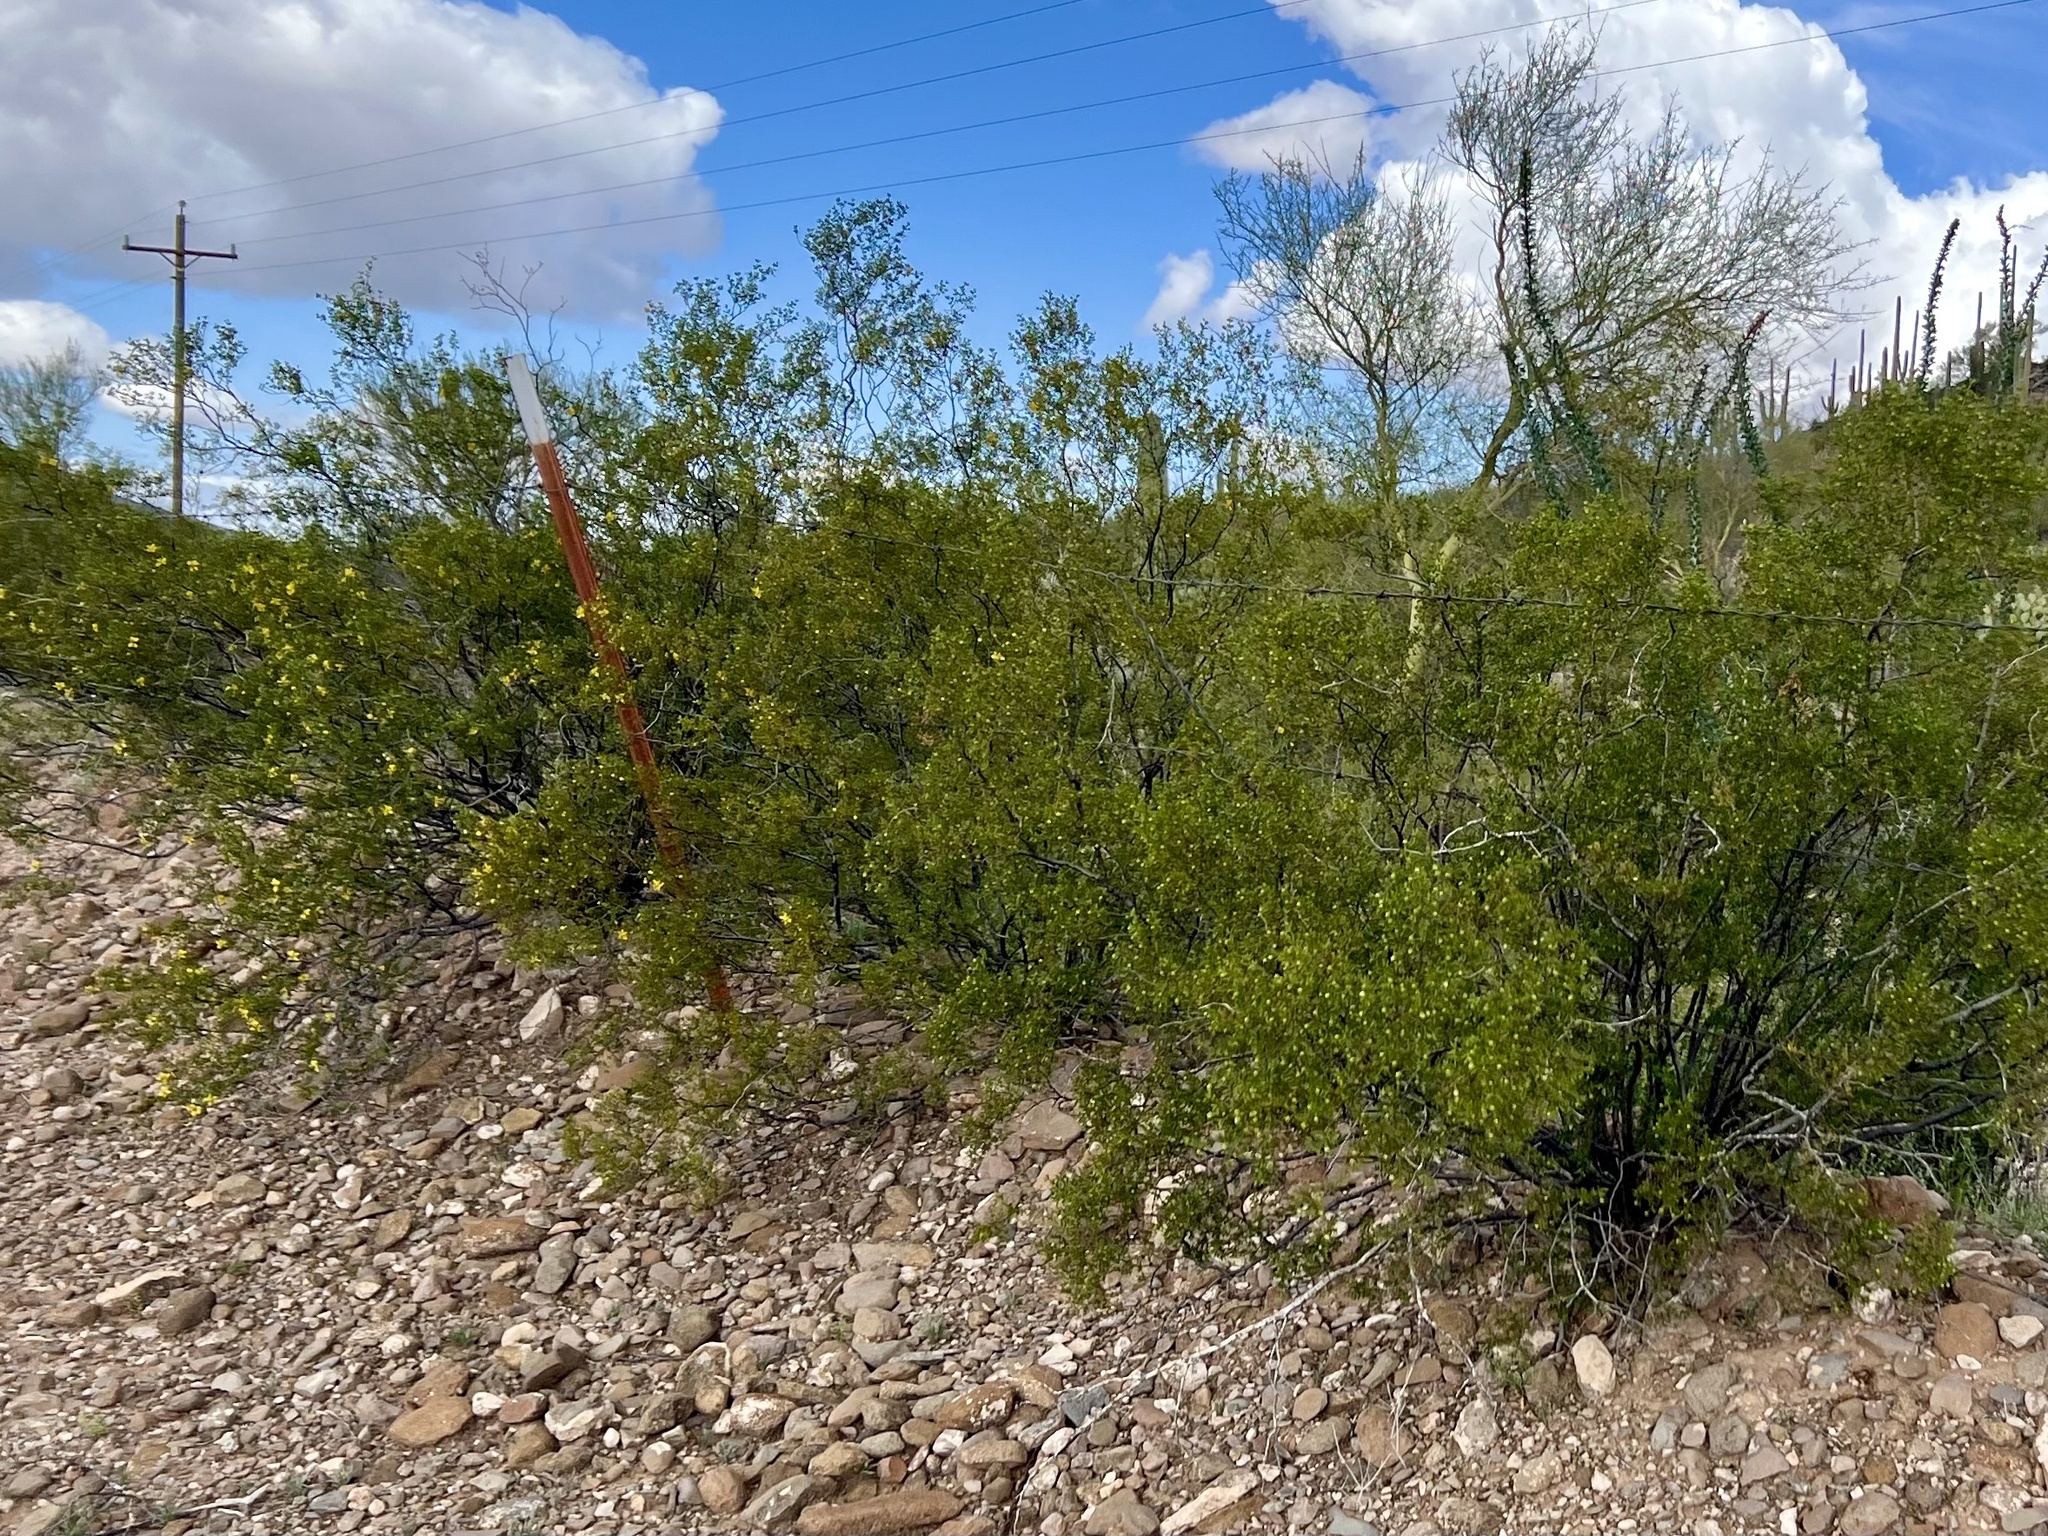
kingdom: Plantae
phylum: Tracheophyta
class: Magnoliopsida
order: Zygophyllales
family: Zygophyllaceae
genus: Larrea
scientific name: Larrea tridentata
